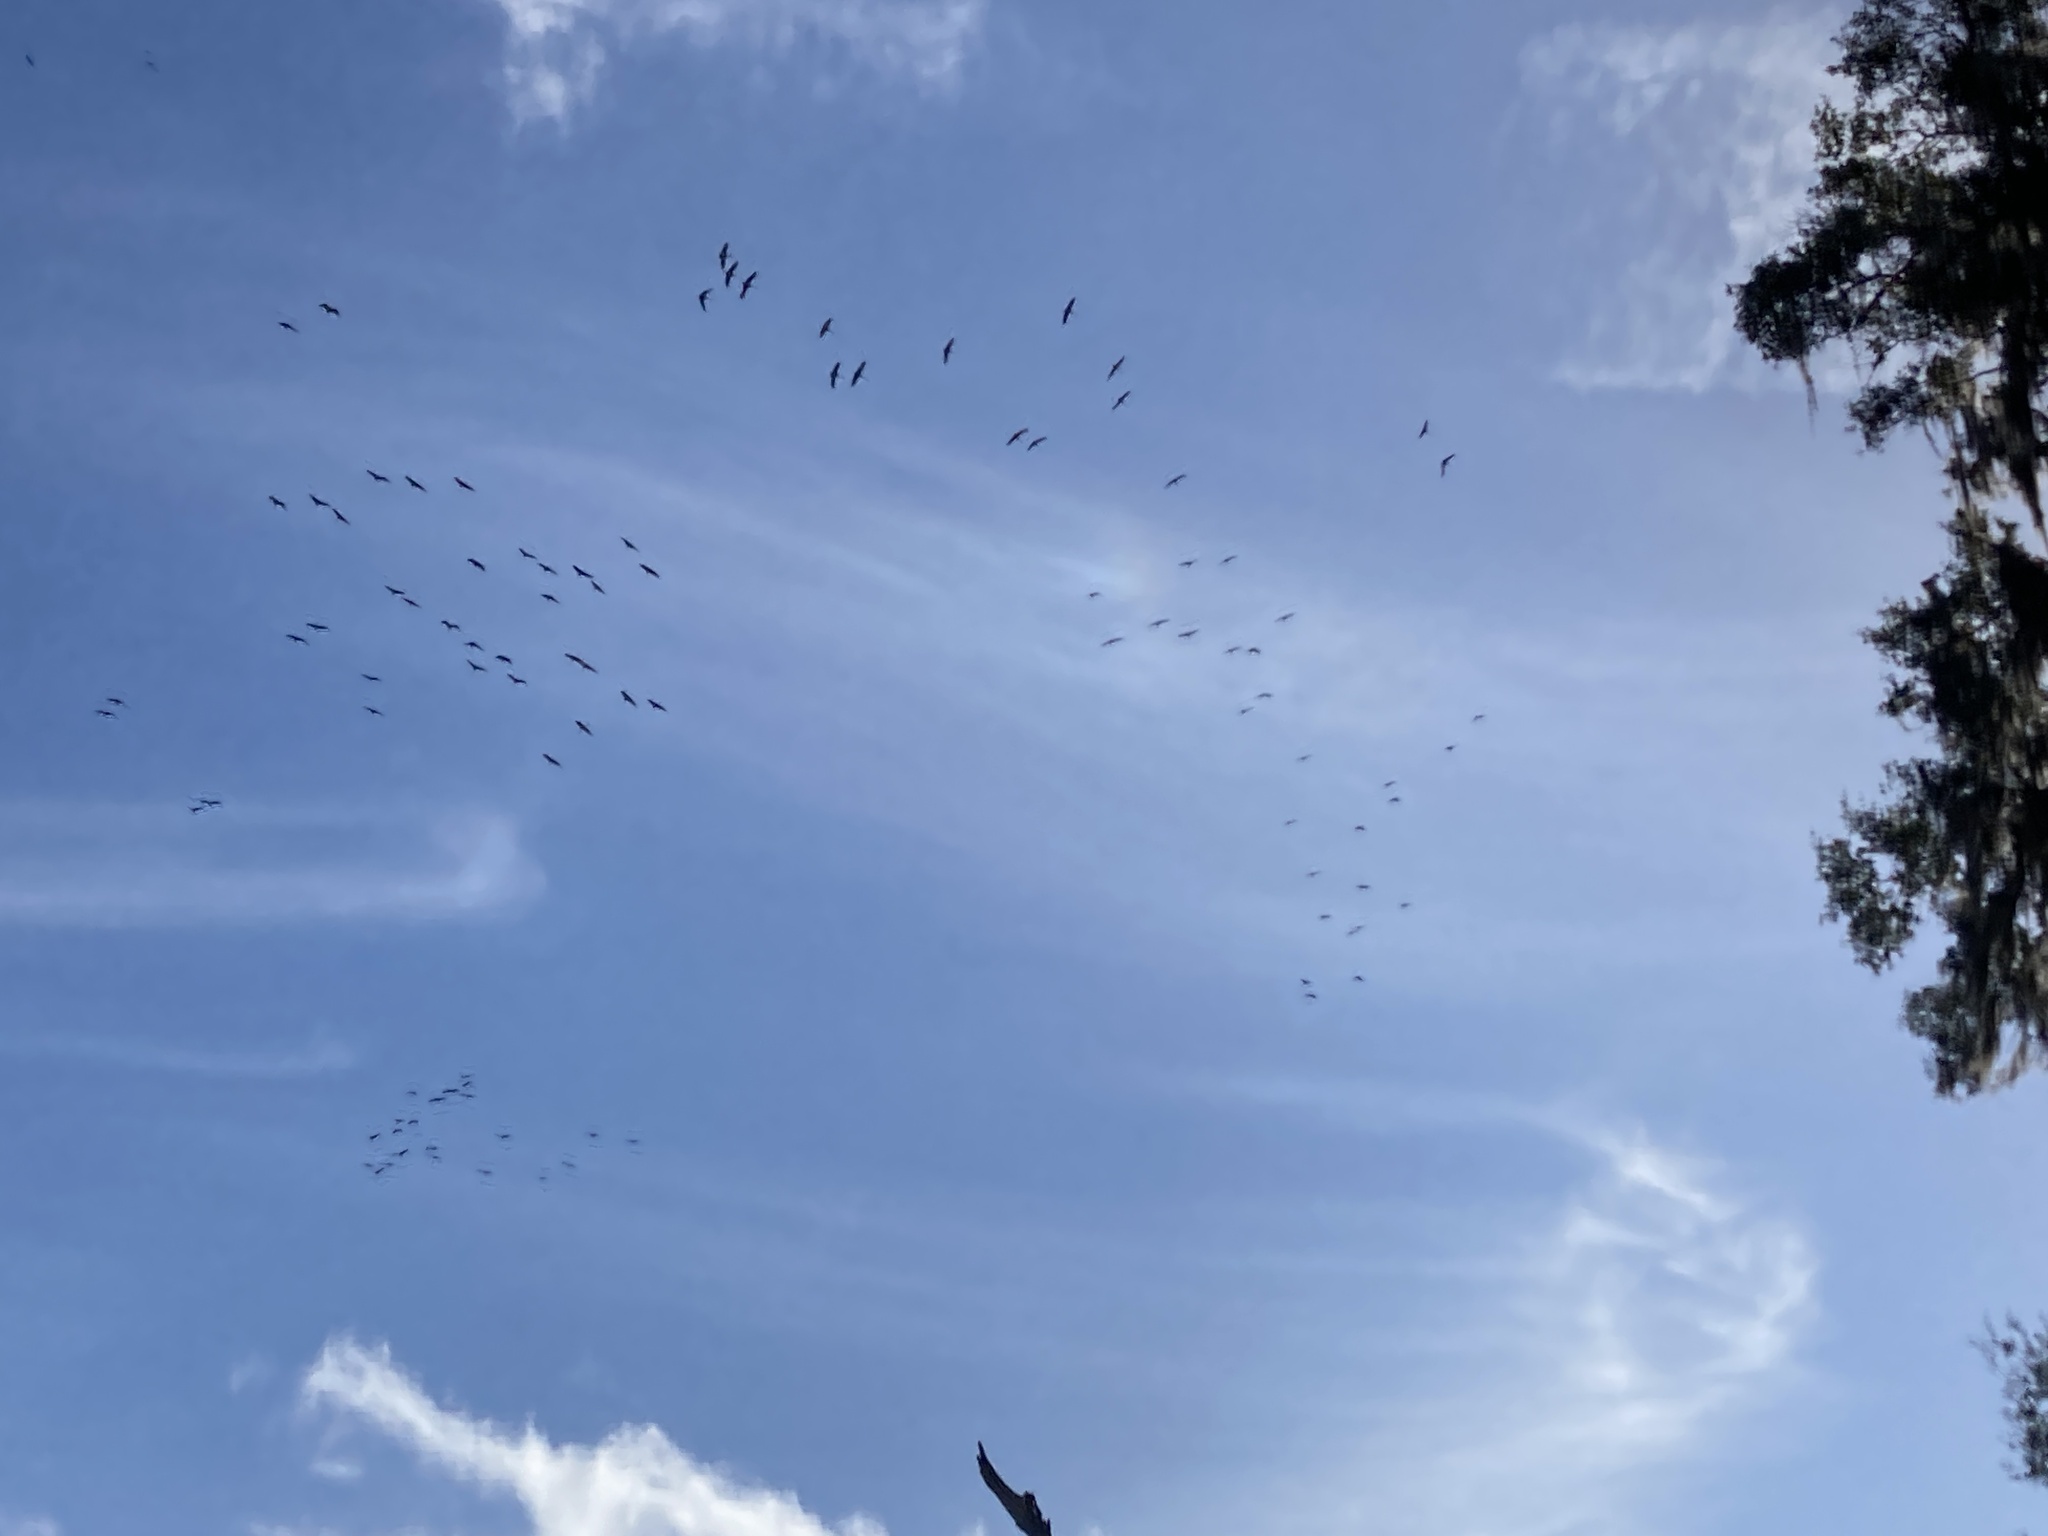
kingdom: Animalia
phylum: Chordata
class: Aves
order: Gruiformes
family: Gruidae
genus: Grus
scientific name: Grus canadensis
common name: Sandhill crane
